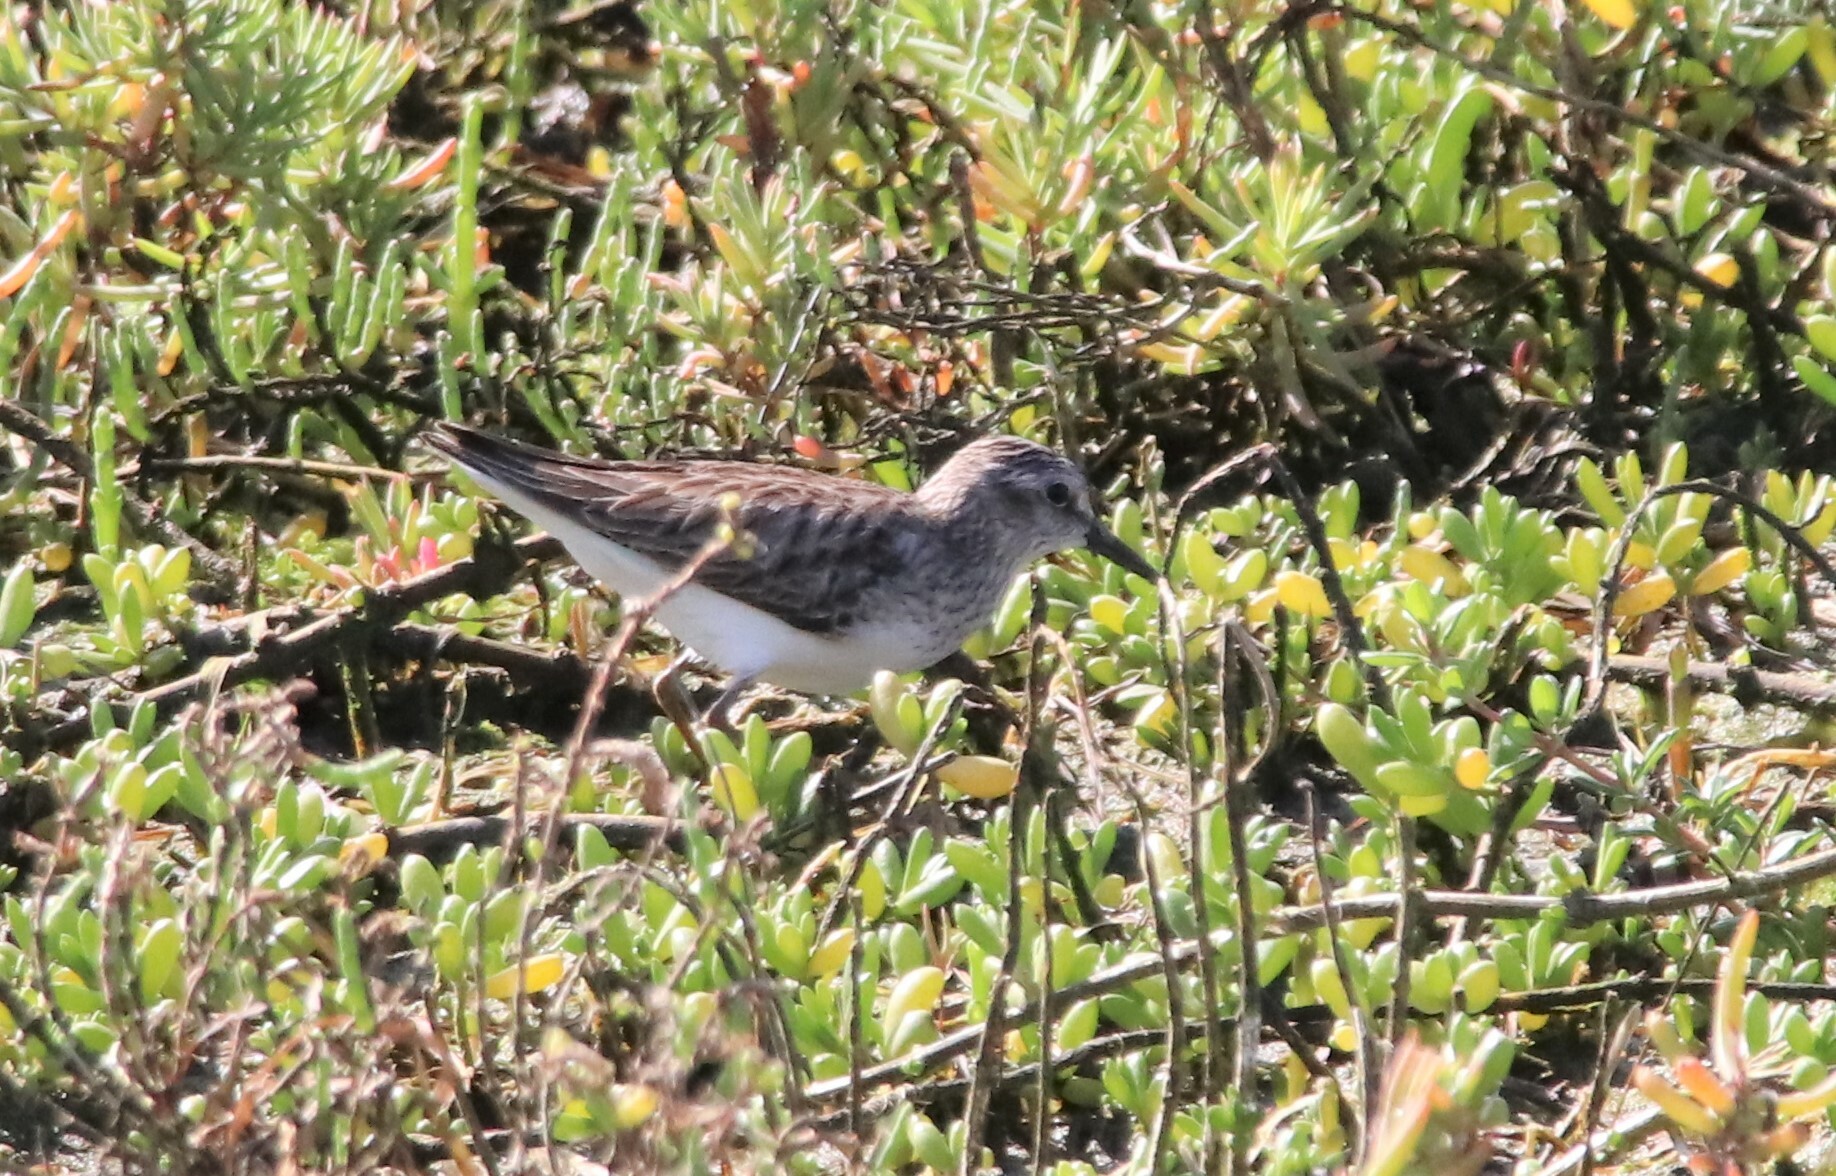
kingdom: Animalia
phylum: Chordata
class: Aves
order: Charadriiformes
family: Scolopacidae
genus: Calidris
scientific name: Calidris minutilla
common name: Least sandpiper
